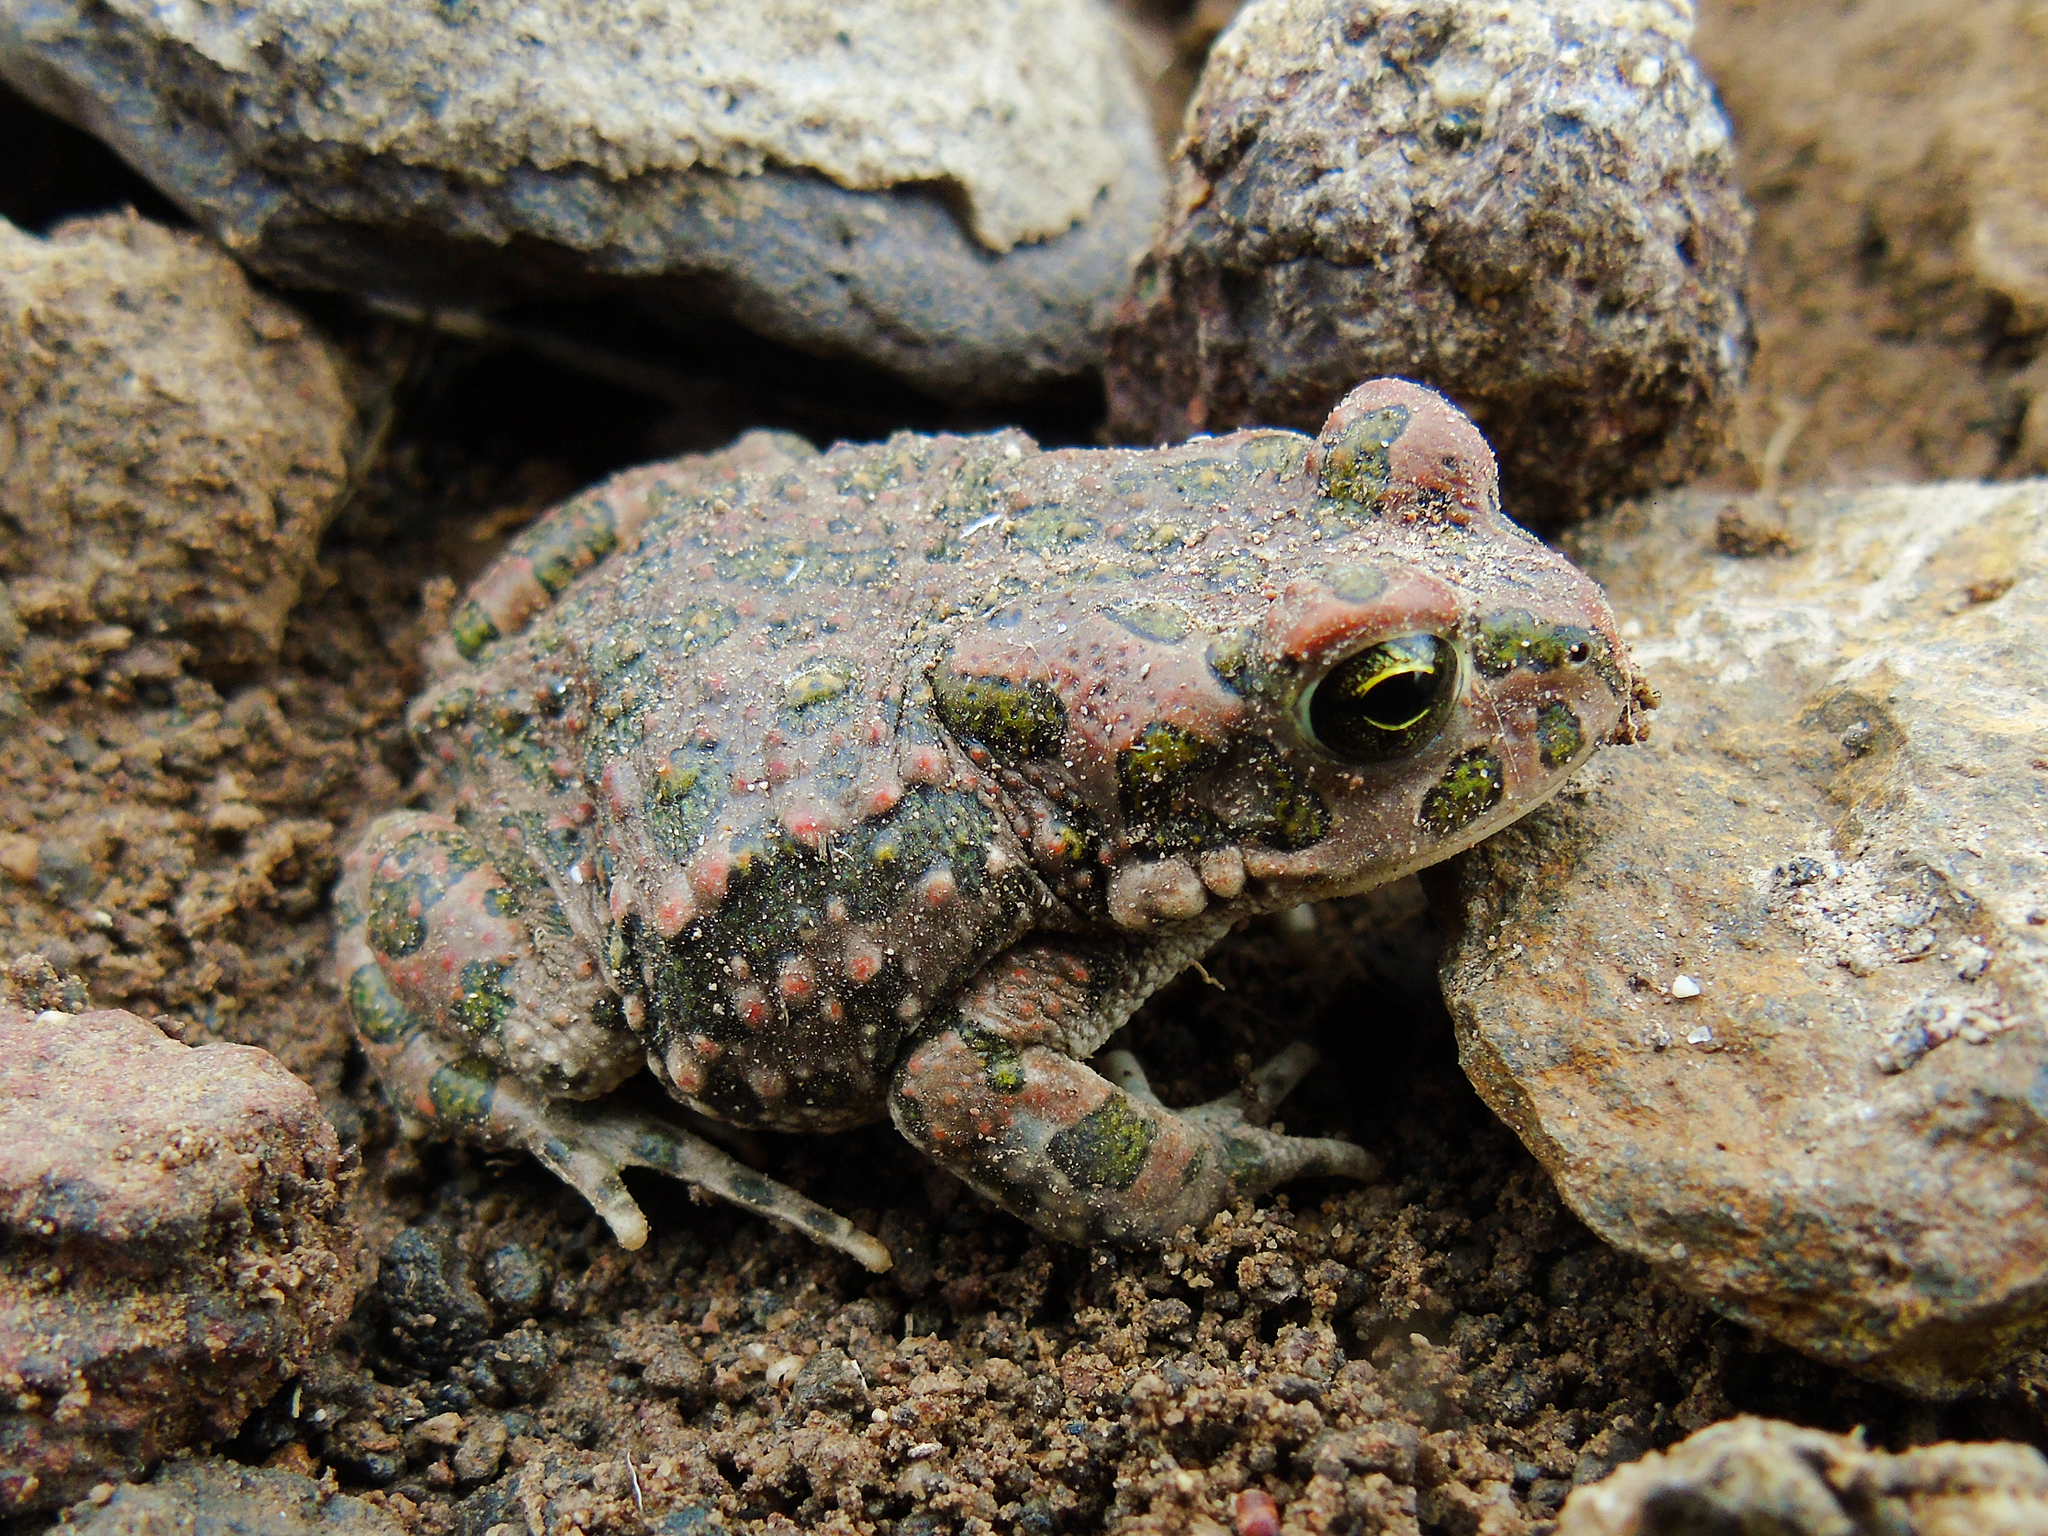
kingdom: Animalia
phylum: Chordata
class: Amphibia
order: Anura
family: Bufonidae
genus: Bufotes
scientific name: Bufotes viridis
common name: European green toad
